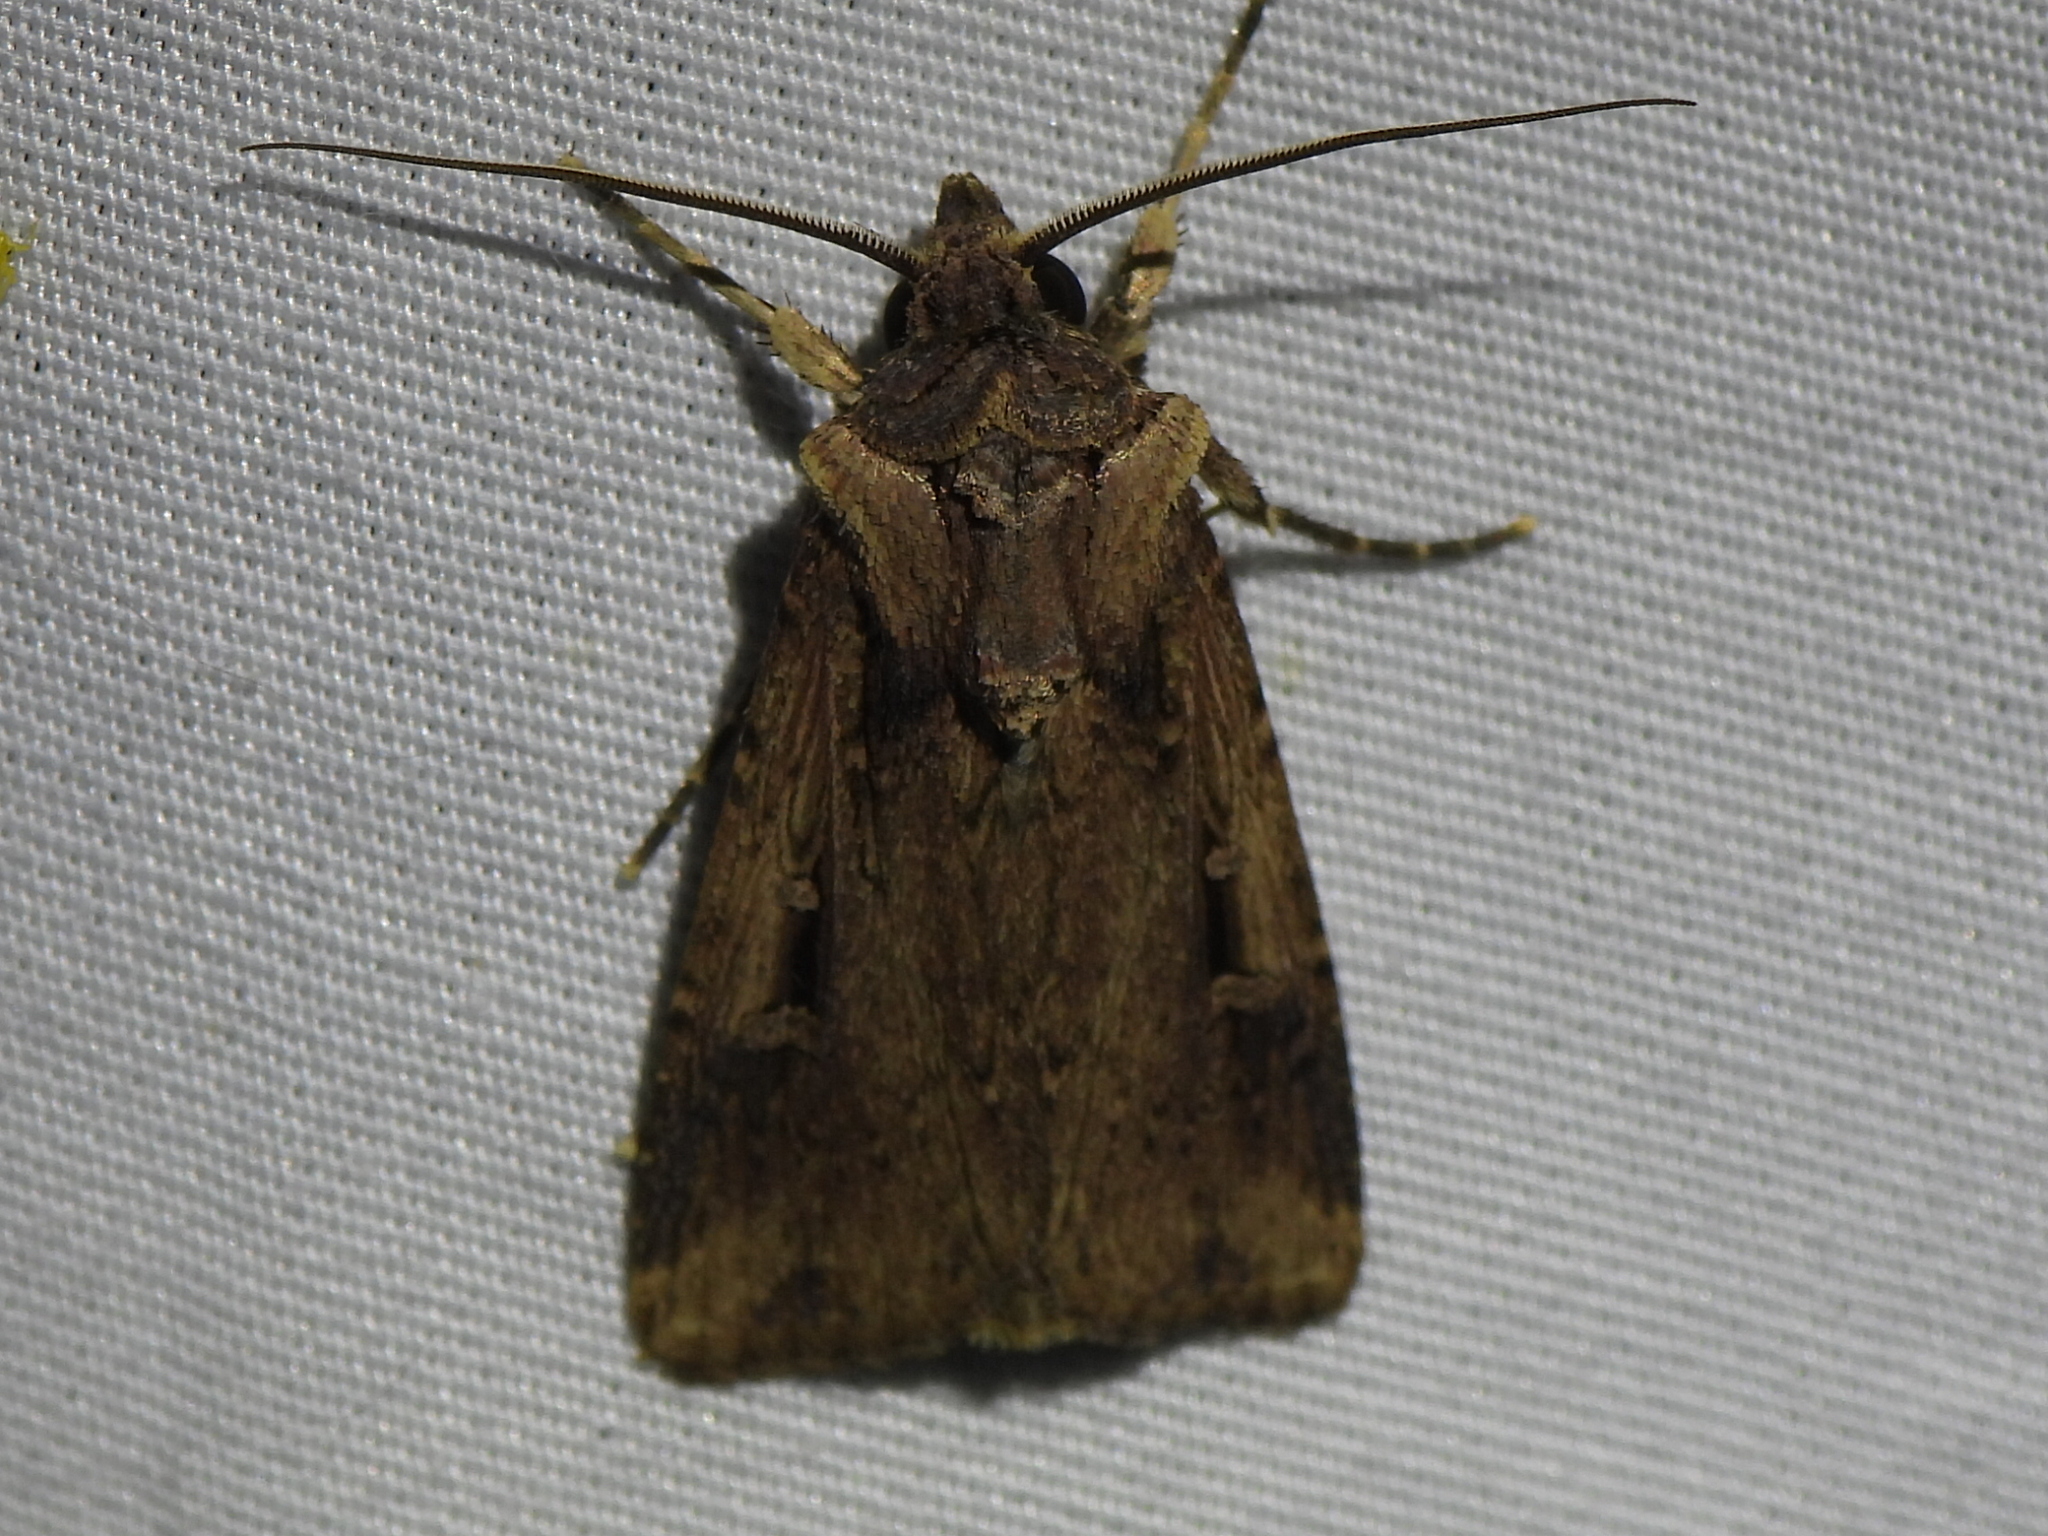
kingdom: Animalia
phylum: Arthropoda
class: Insecta
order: Lepidoptera
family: Noctuidae
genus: Feltia
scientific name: Feltia subterranea
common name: Granulate cutworm
